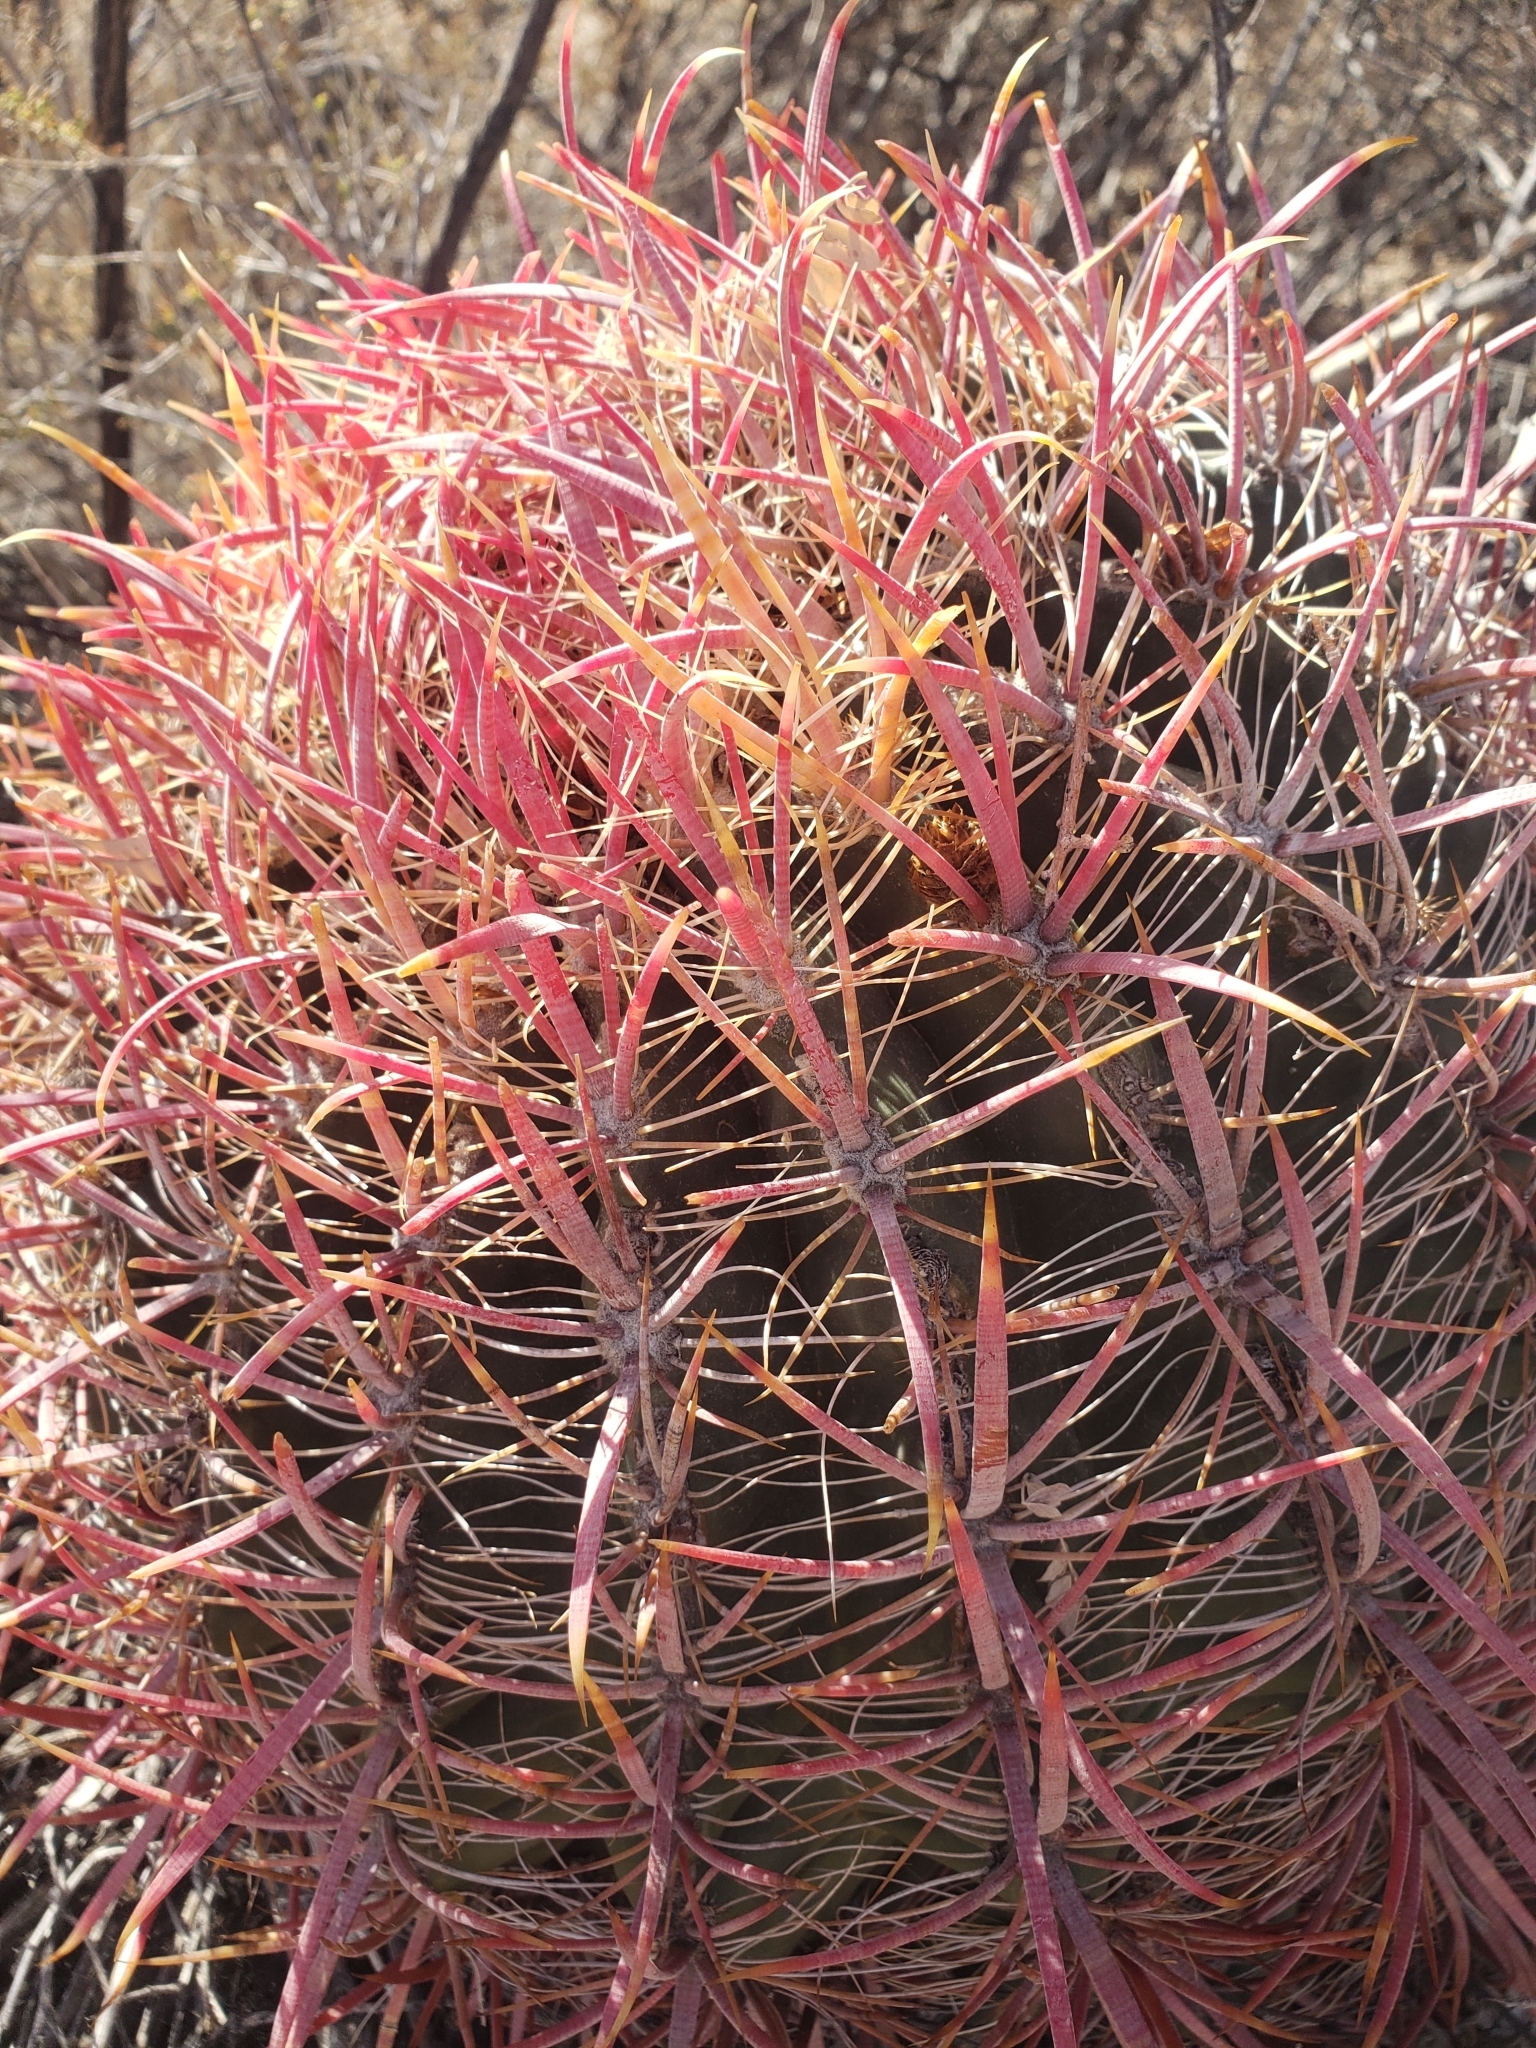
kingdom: Plantae
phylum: Tracheophyta
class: Magnoliopsida
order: Caryophyllales
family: Cactaceae
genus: Ferocactus
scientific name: Ferocactus cylindraceus
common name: California barrel cactus
